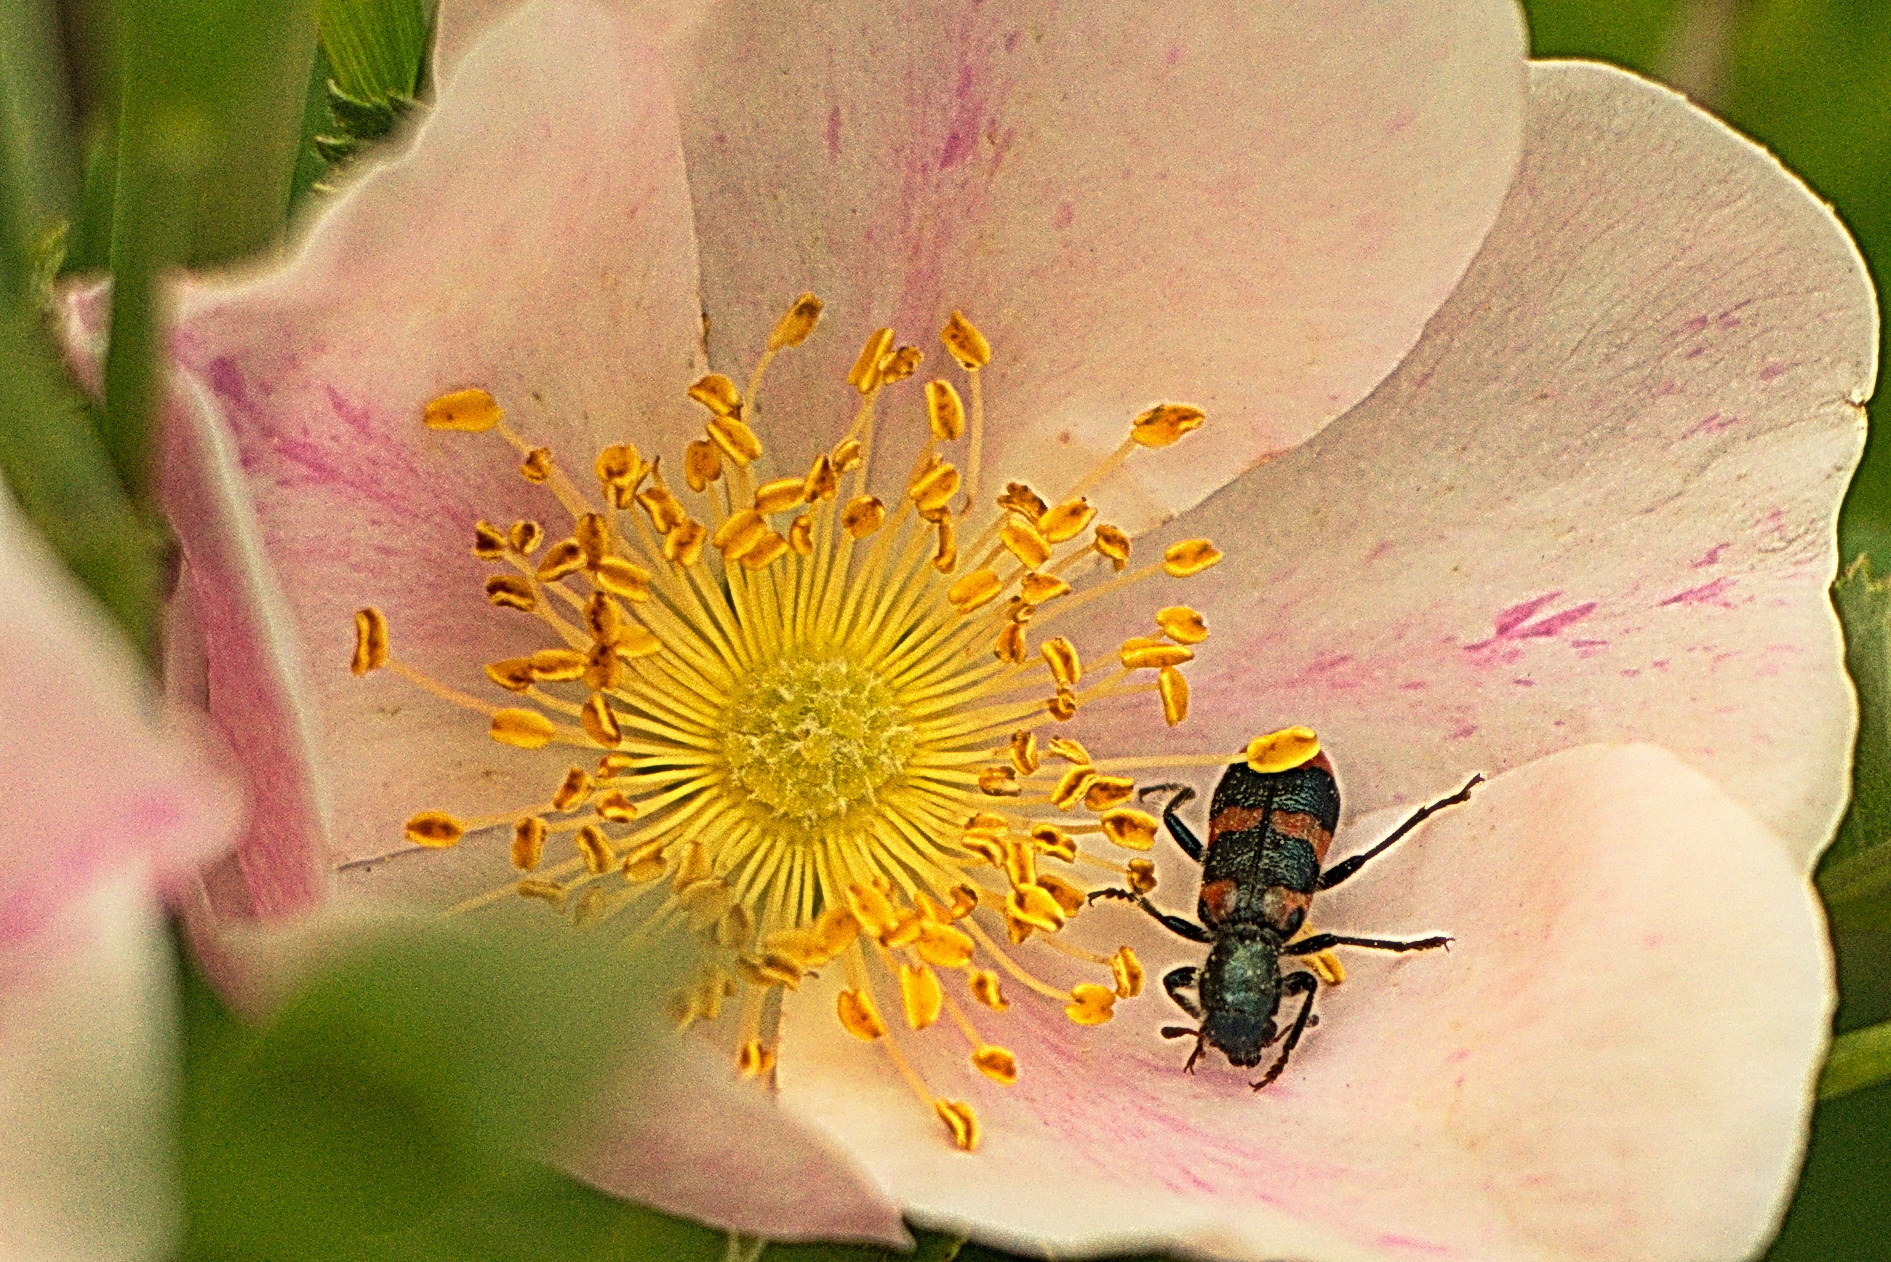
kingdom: Animalia
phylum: Arthropoda
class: Insecta
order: Coleoptera
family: Cleridae
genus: Trichodes
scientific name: Trichodes nutalli
